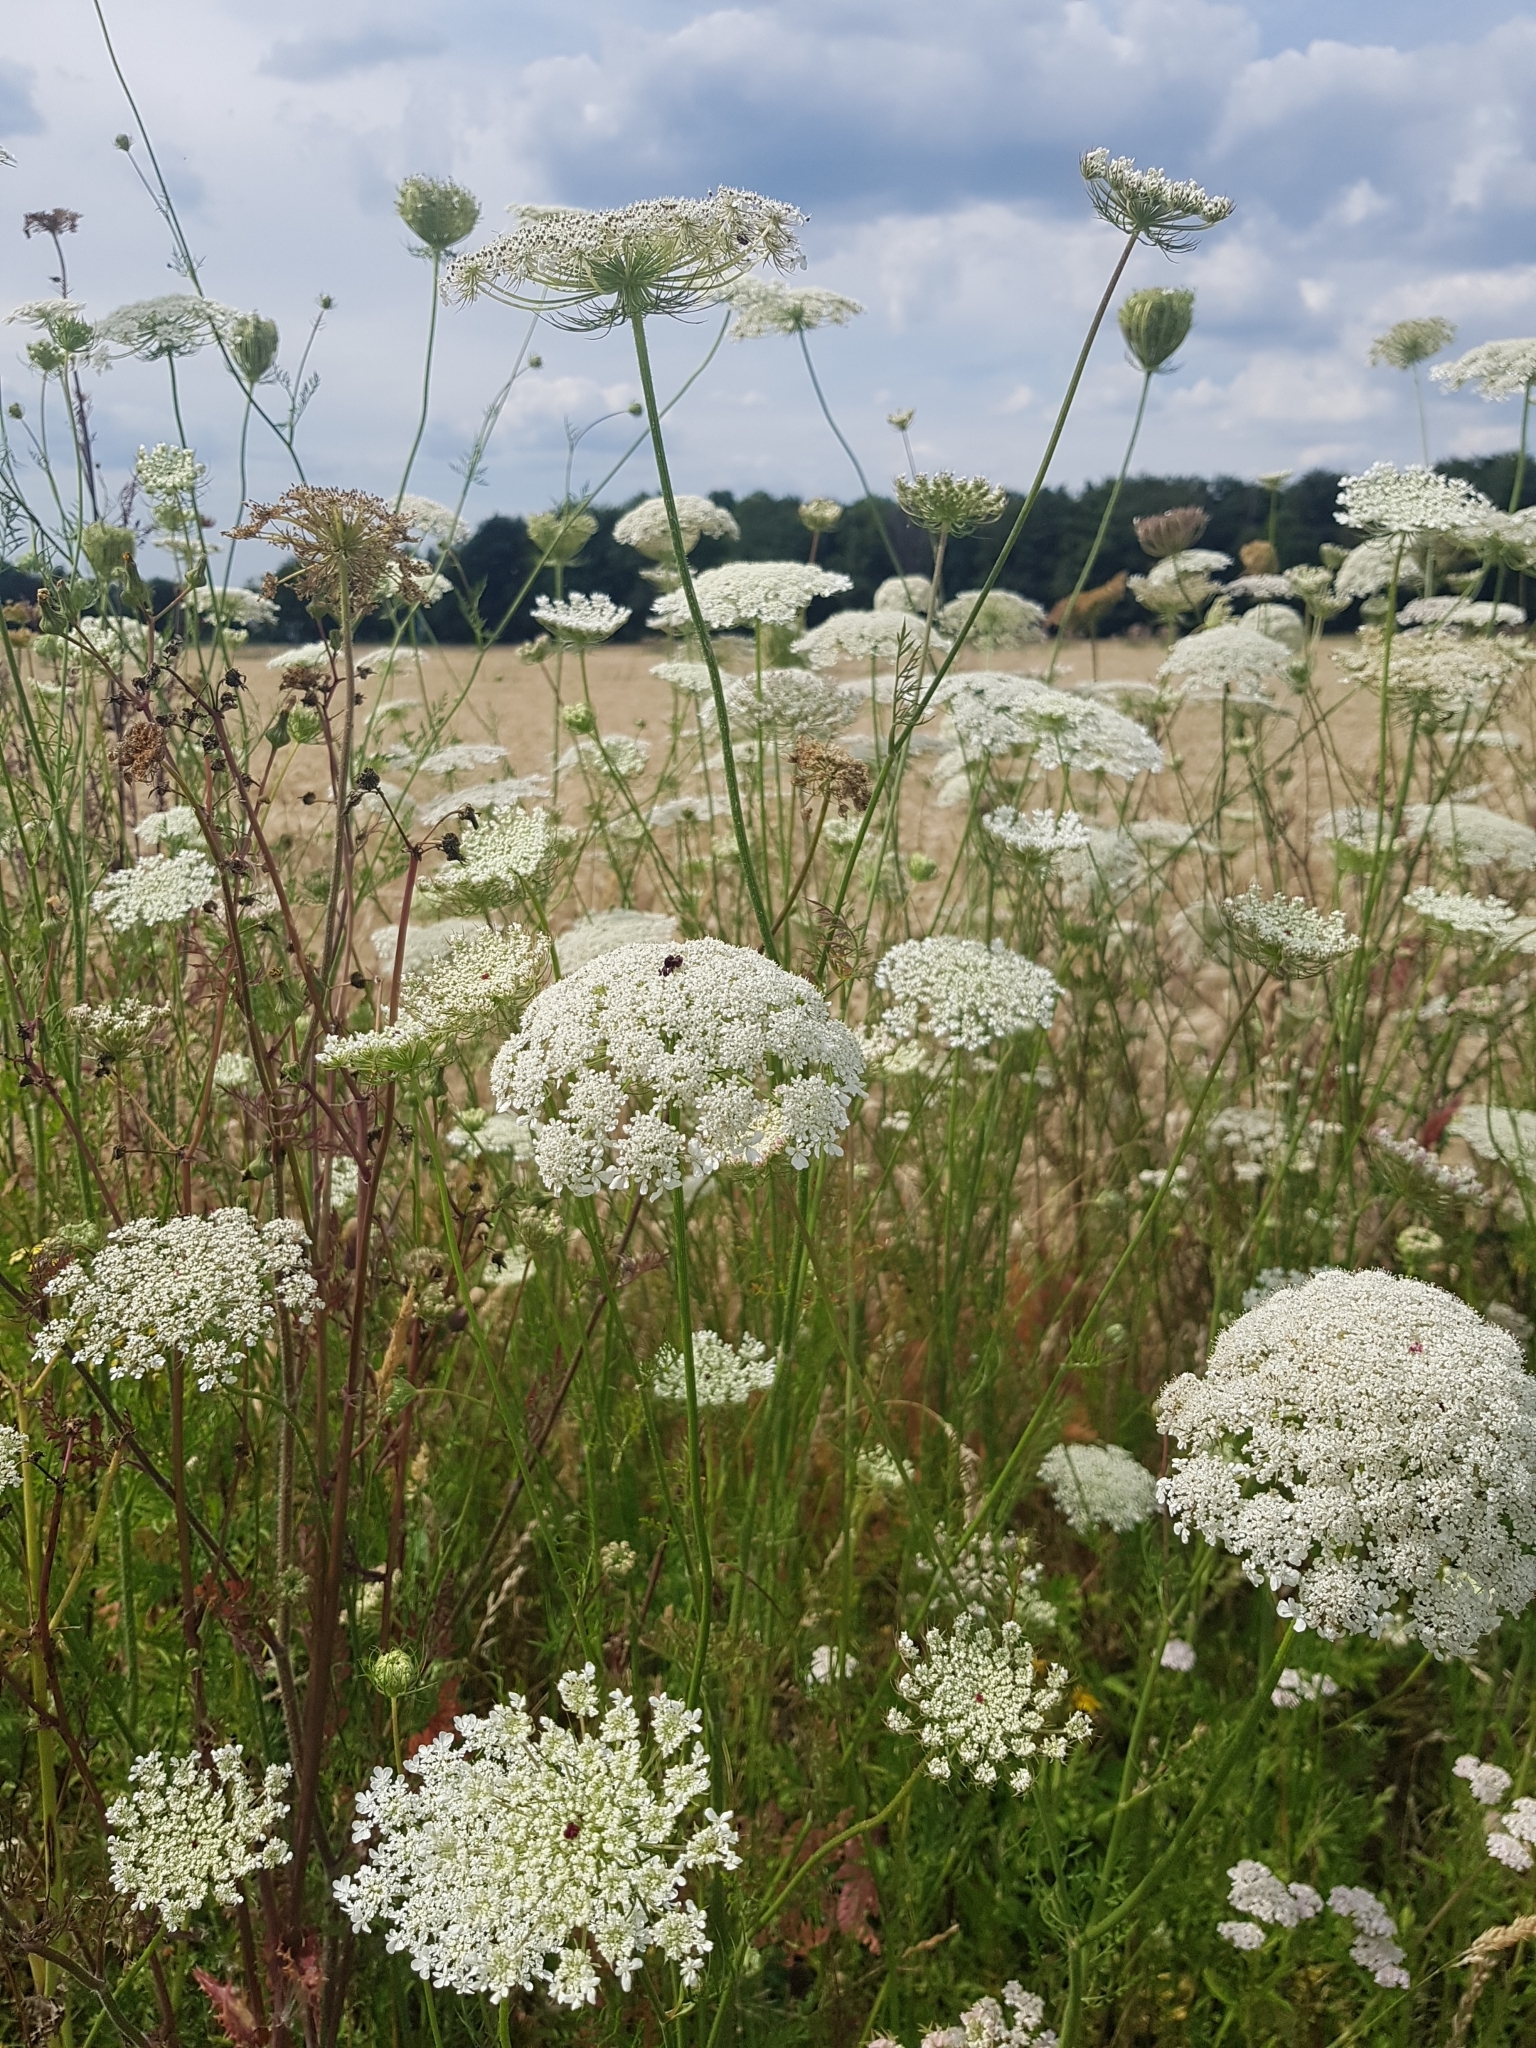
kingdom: Plantae
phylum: Tracheophyta
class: Magnoliopsida
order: Apiales
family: Apiaceae
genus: Daucus
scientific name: Daucus carota
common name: Wild carrot
